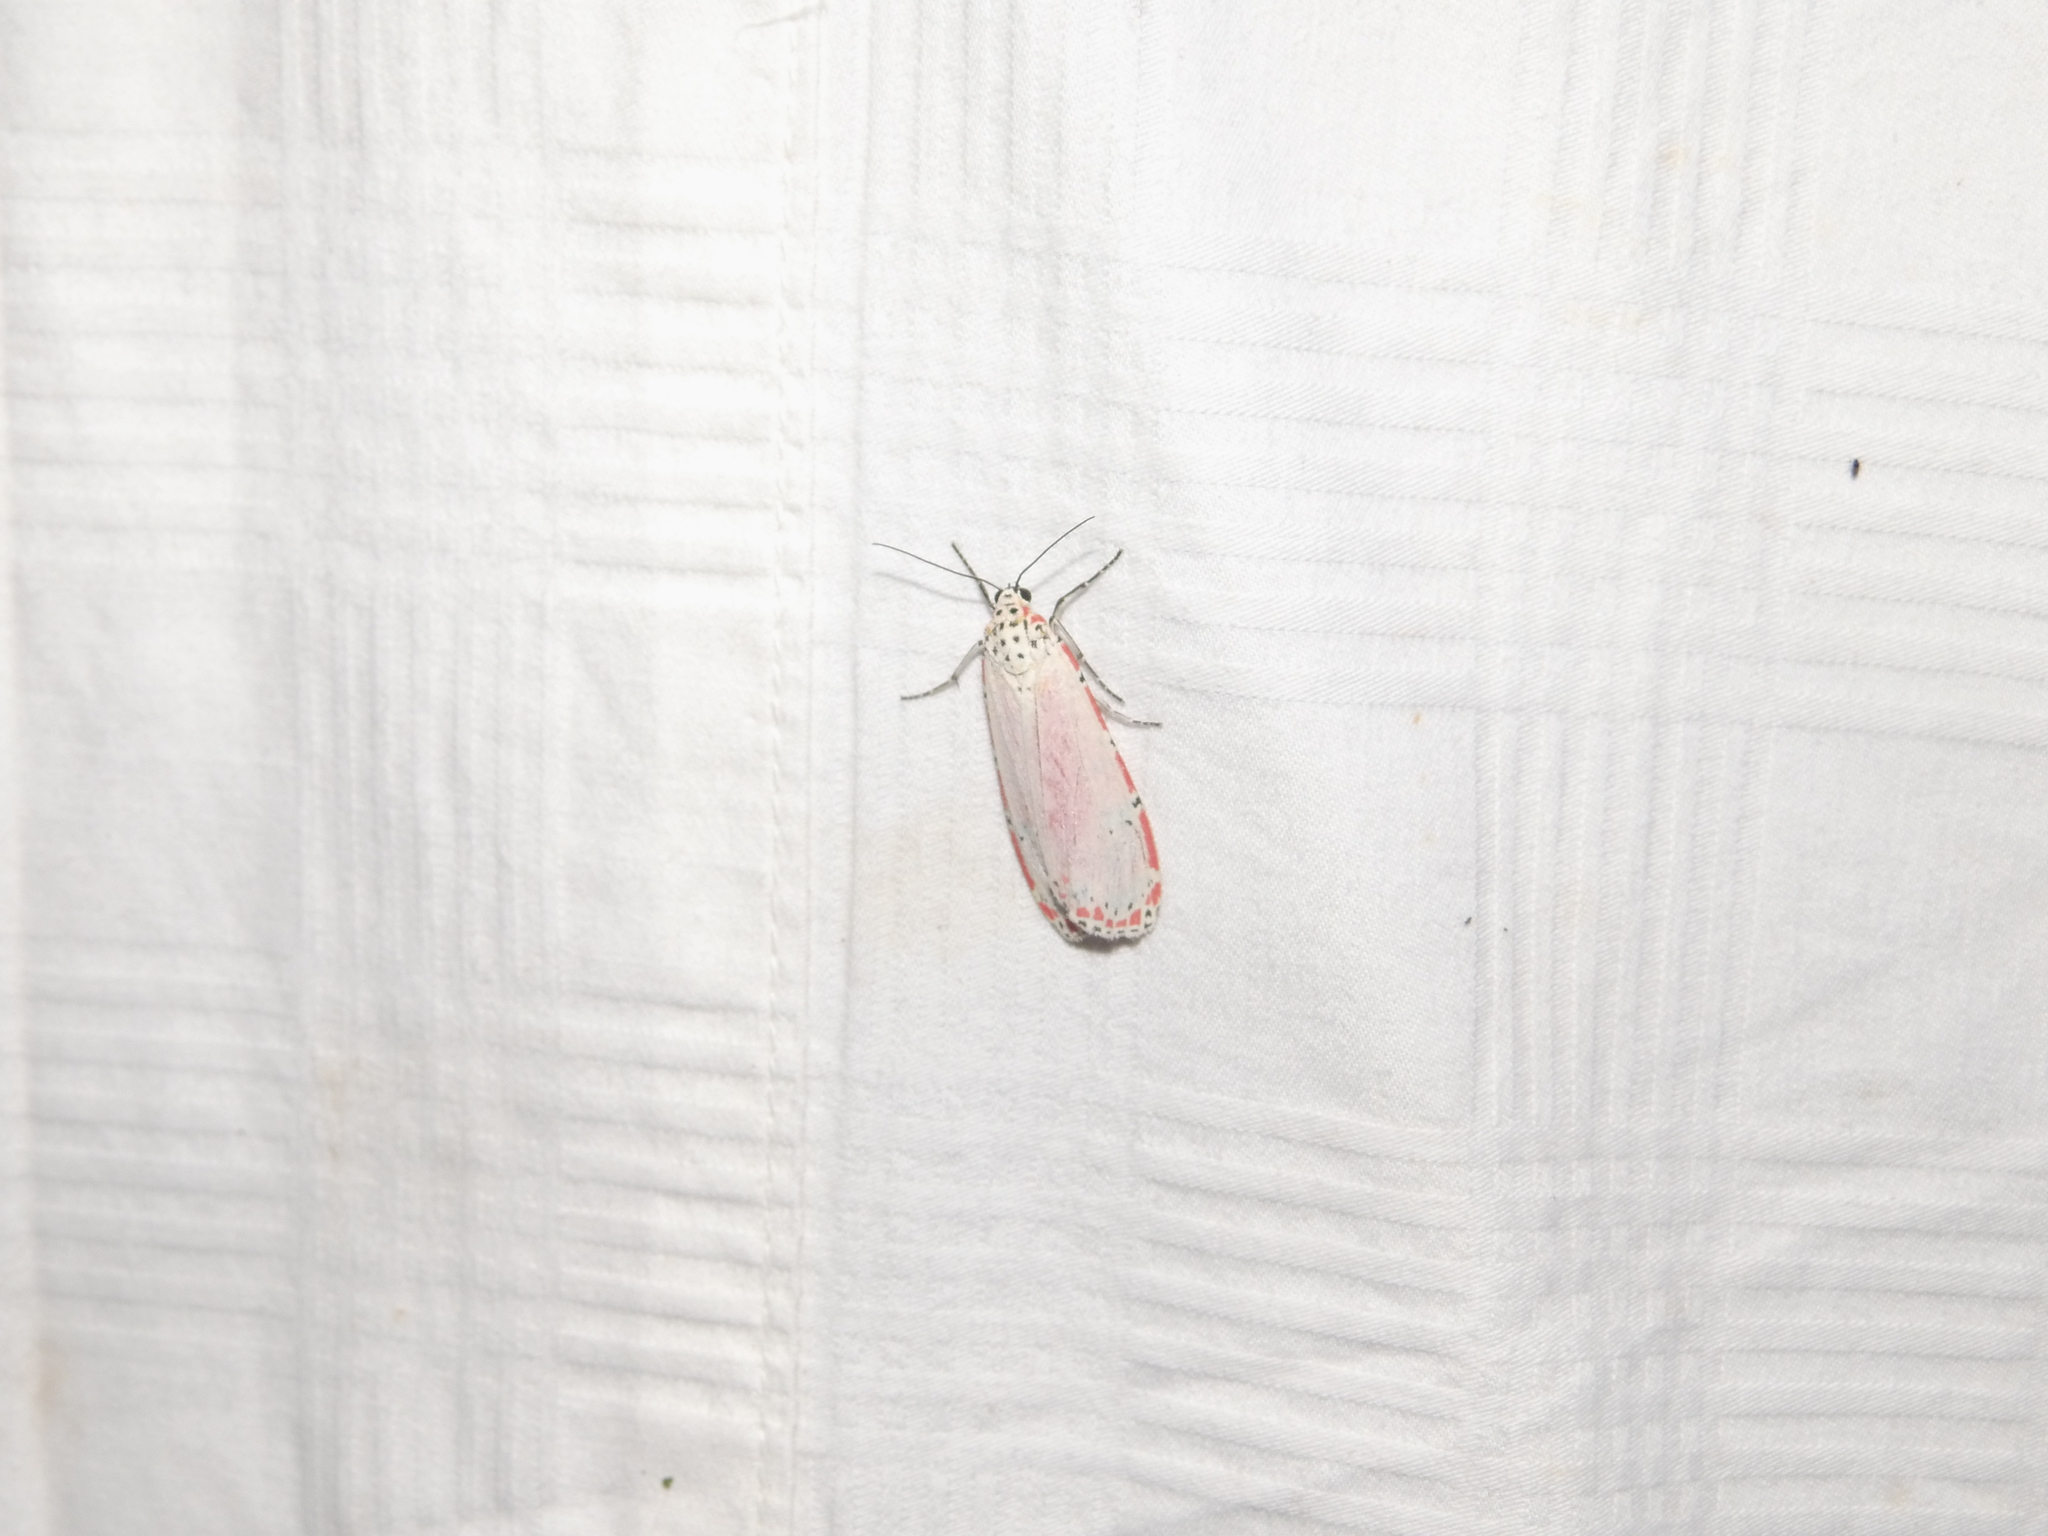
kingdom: Animalia
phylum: Arthropoda
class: Insecta
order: Lepidoptera
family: Erebidae
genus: Utetheisa
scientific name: Utetheisa ornatrix
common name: Beautiful utetheisa
